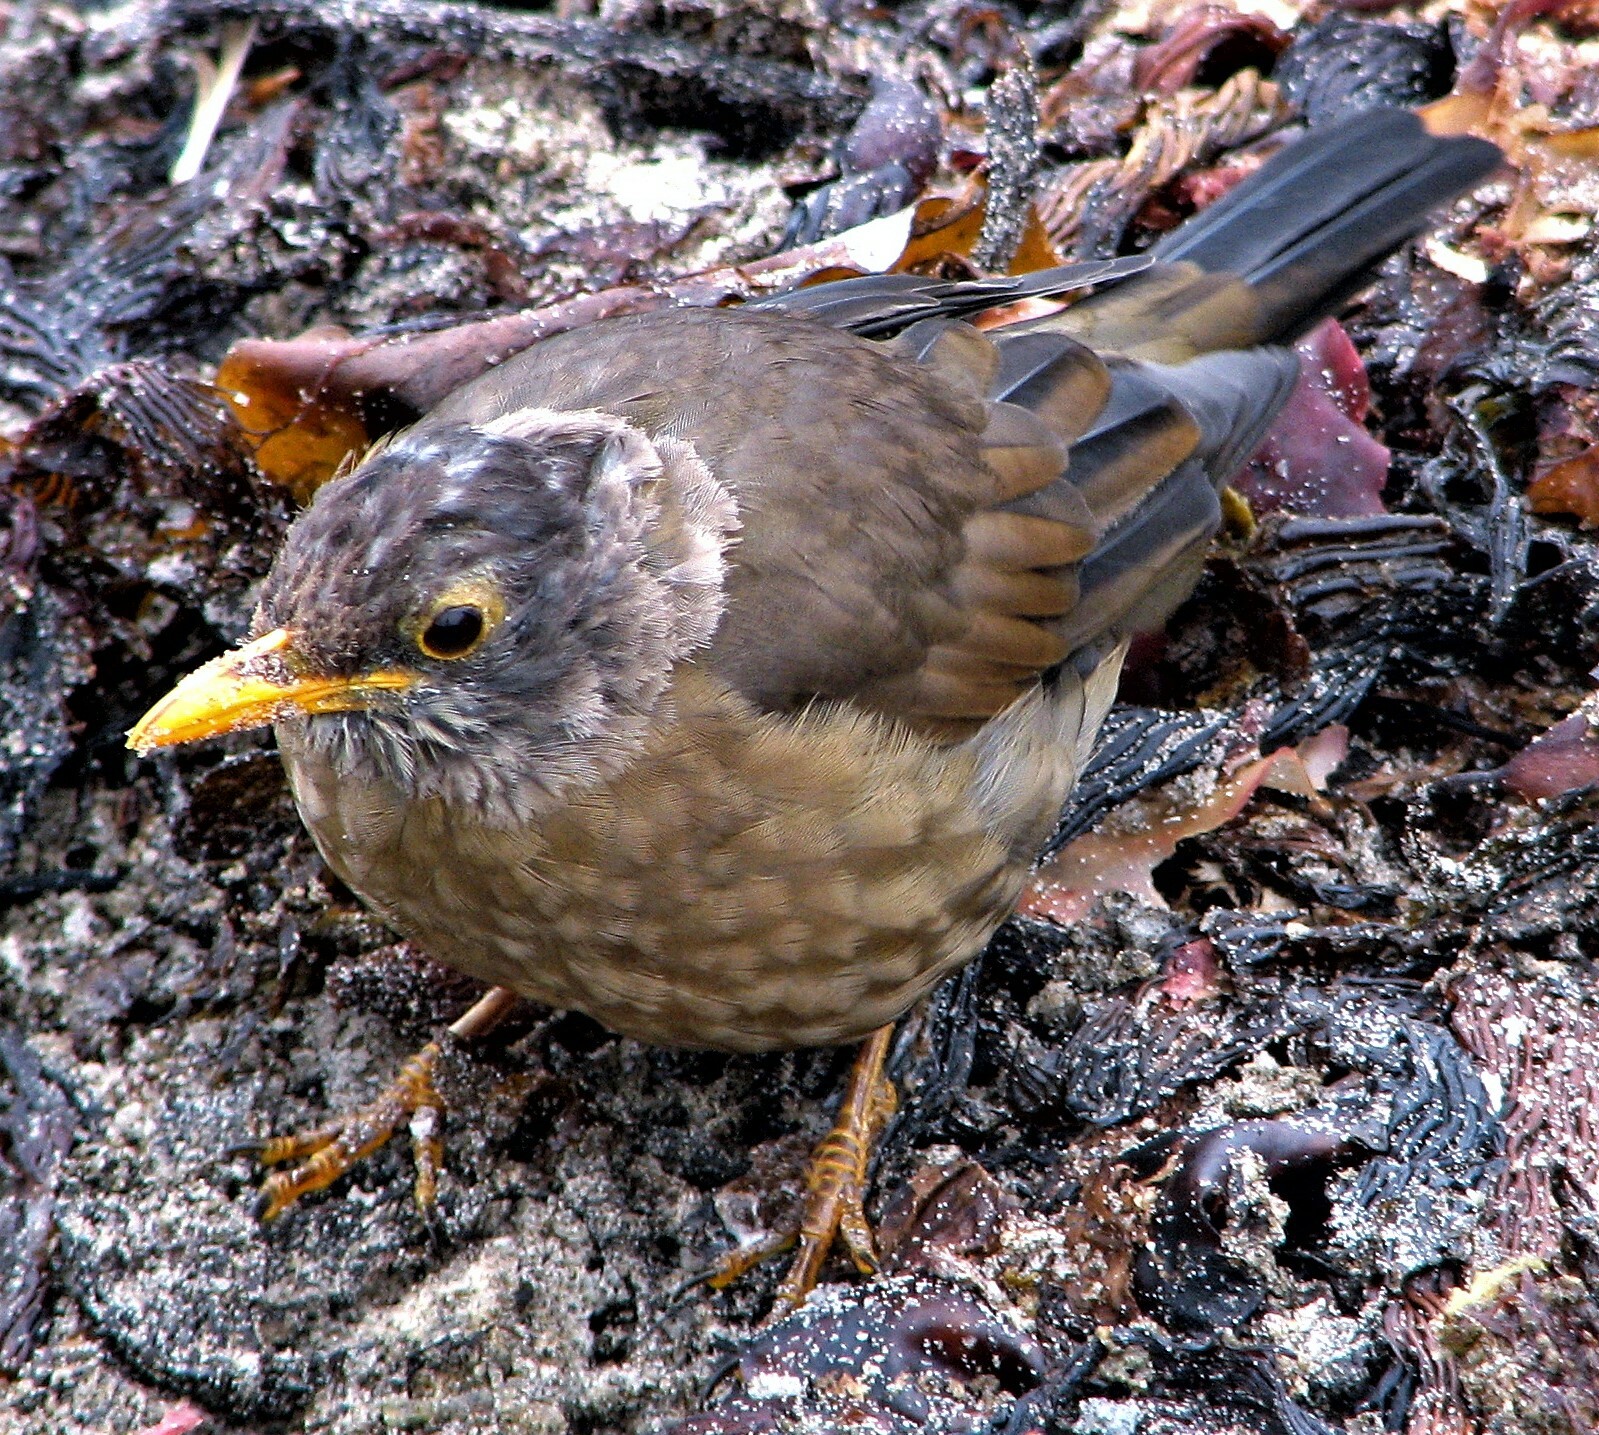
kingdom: Animalia
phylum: Chordata
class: Aves
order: Passeriformes
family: Turdidae
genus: Turdus
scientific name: Turdus falcklandii
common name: Austral thrush
